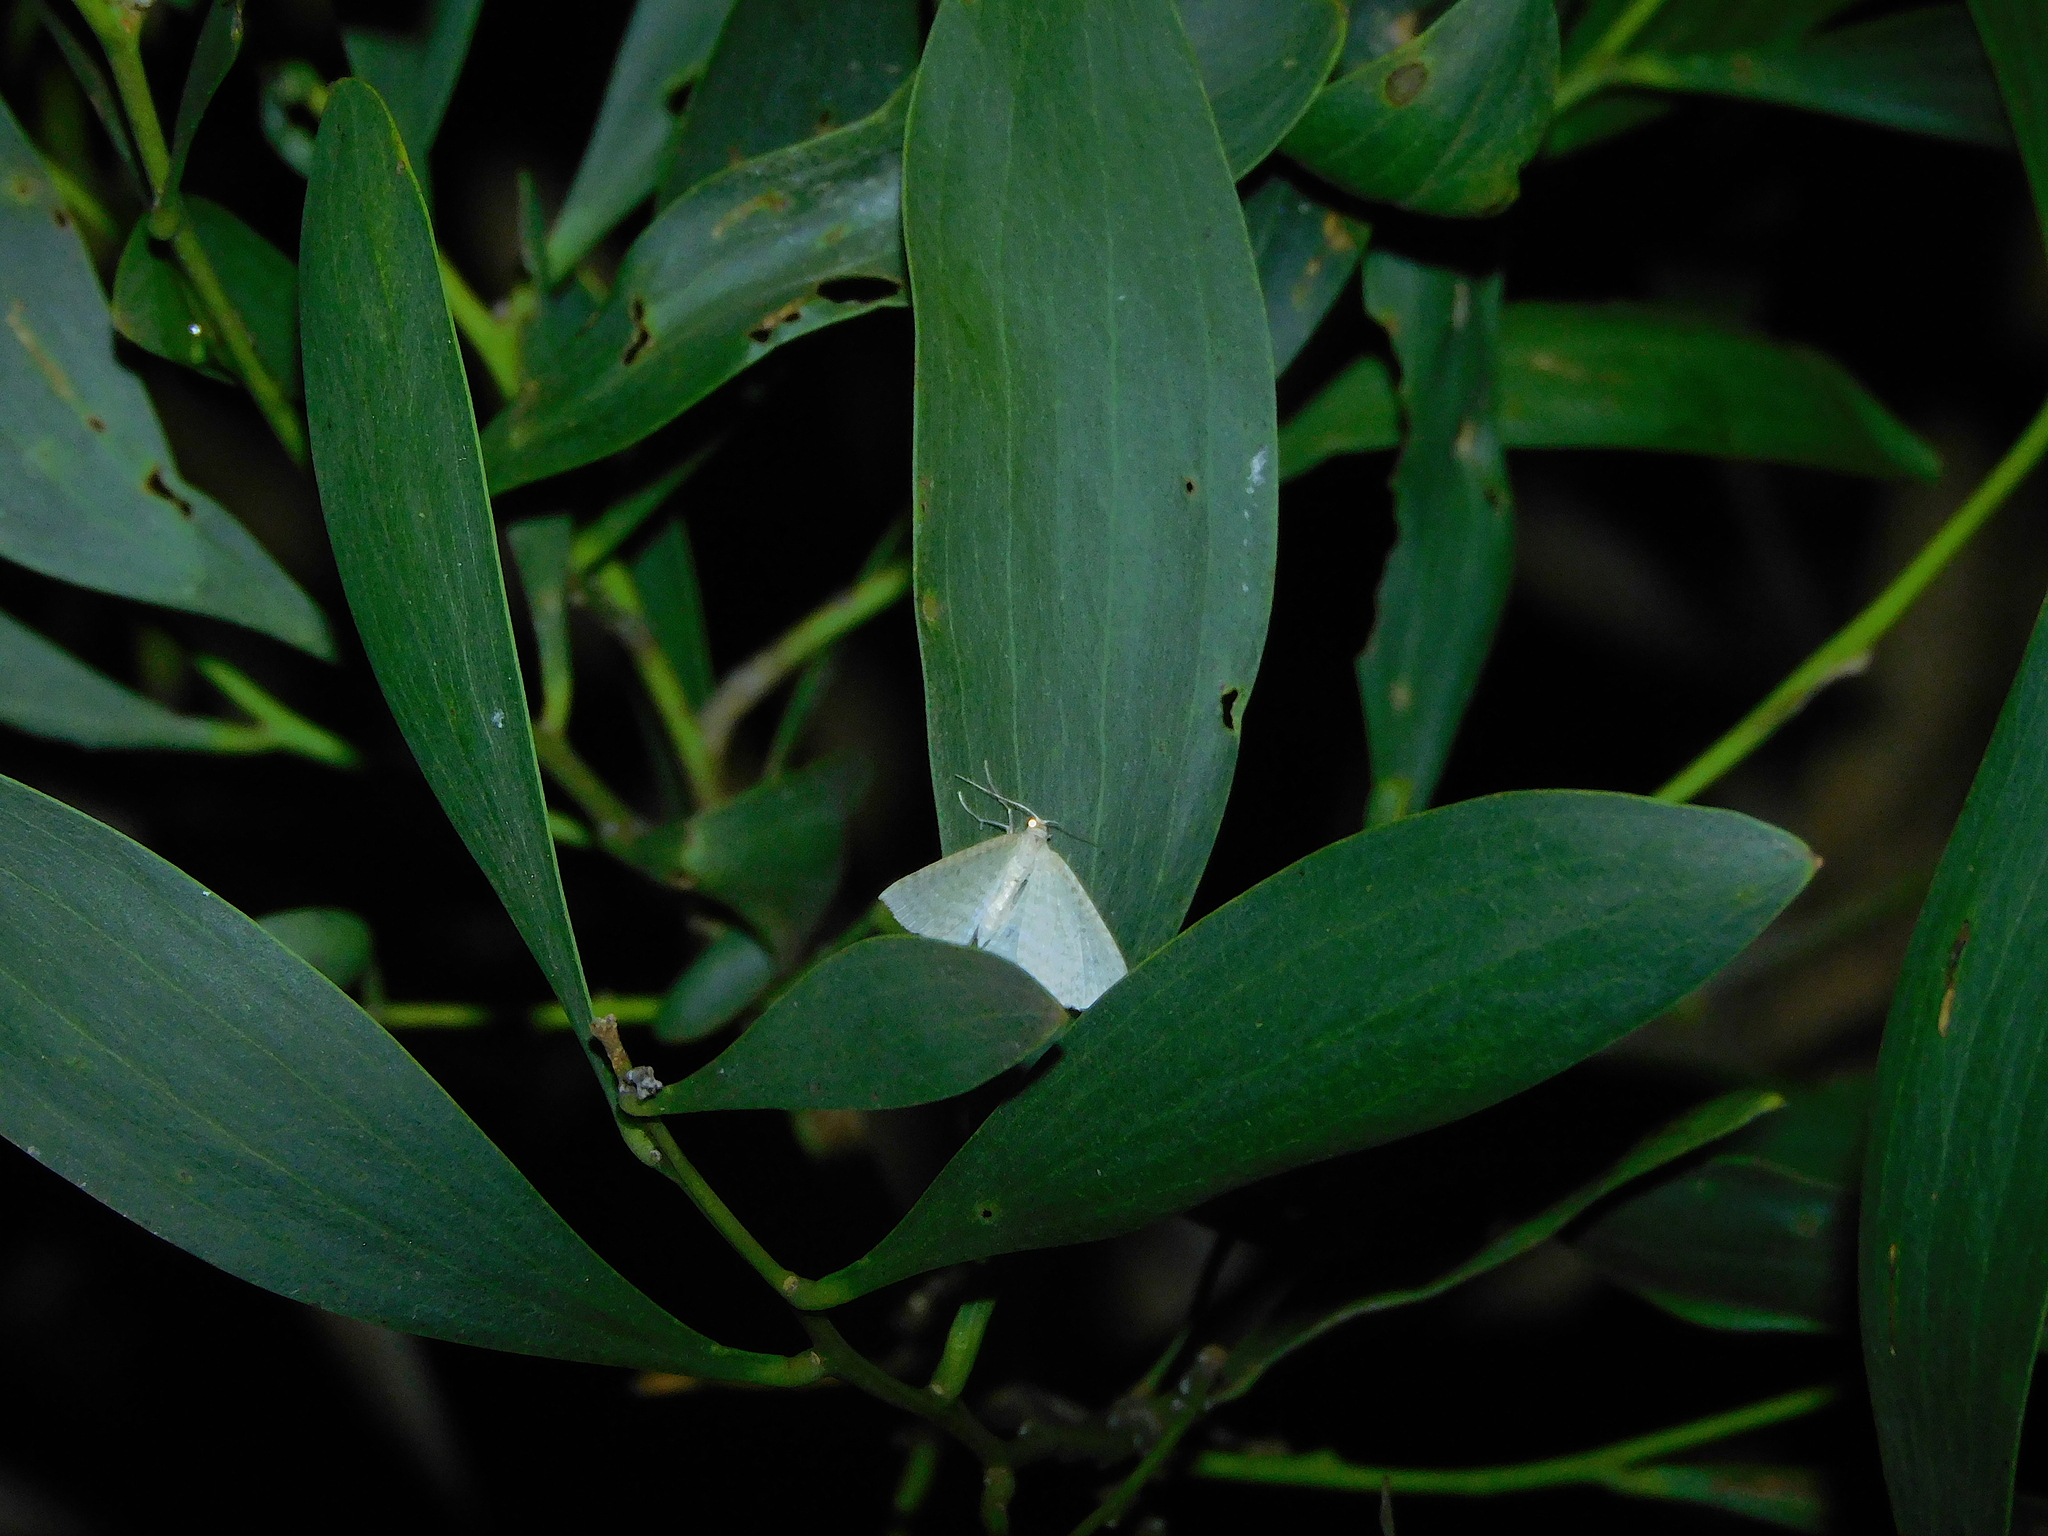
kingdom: Animalia
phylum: Arthropoda
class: Insecta
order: Lepidoptera
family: Geometridae
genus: Poecilasthena
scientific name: Poecilasthena pulchraria
